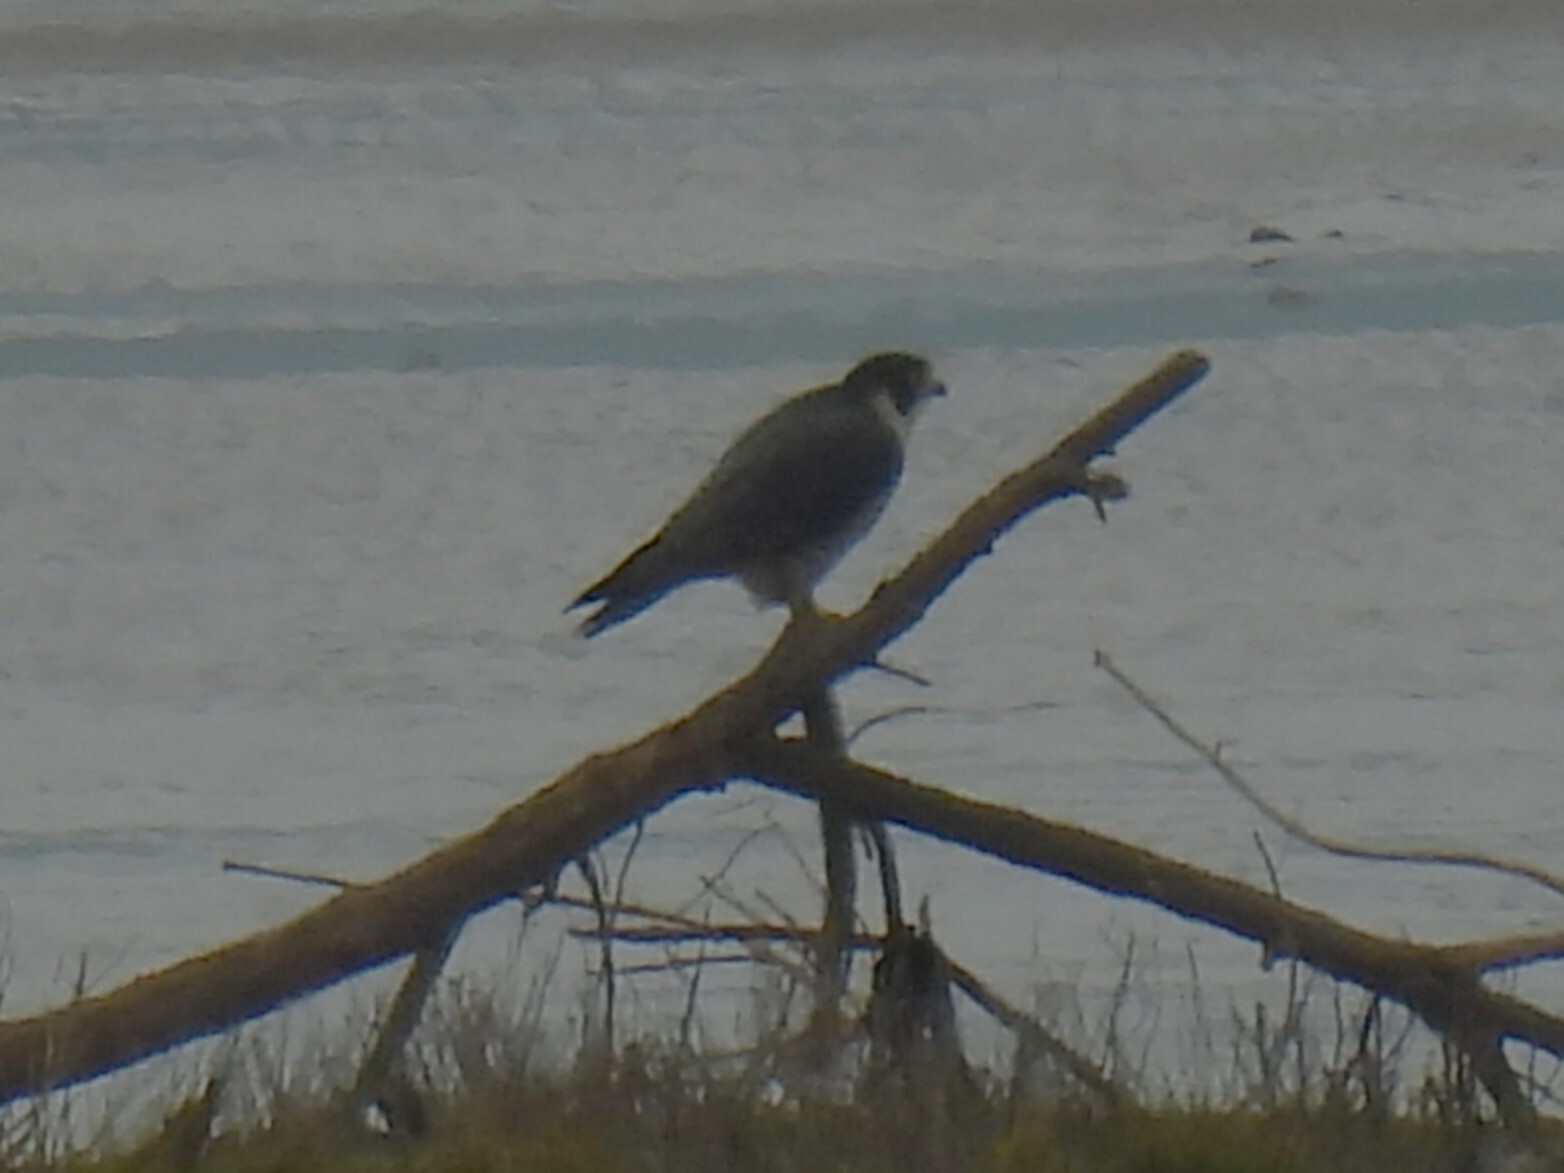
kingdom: Animalia
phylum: Chordata
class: Aves
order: Falconiformes
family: Falconidae
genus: Falco
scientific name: Falco peregrinus
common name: Peregrine falcon
